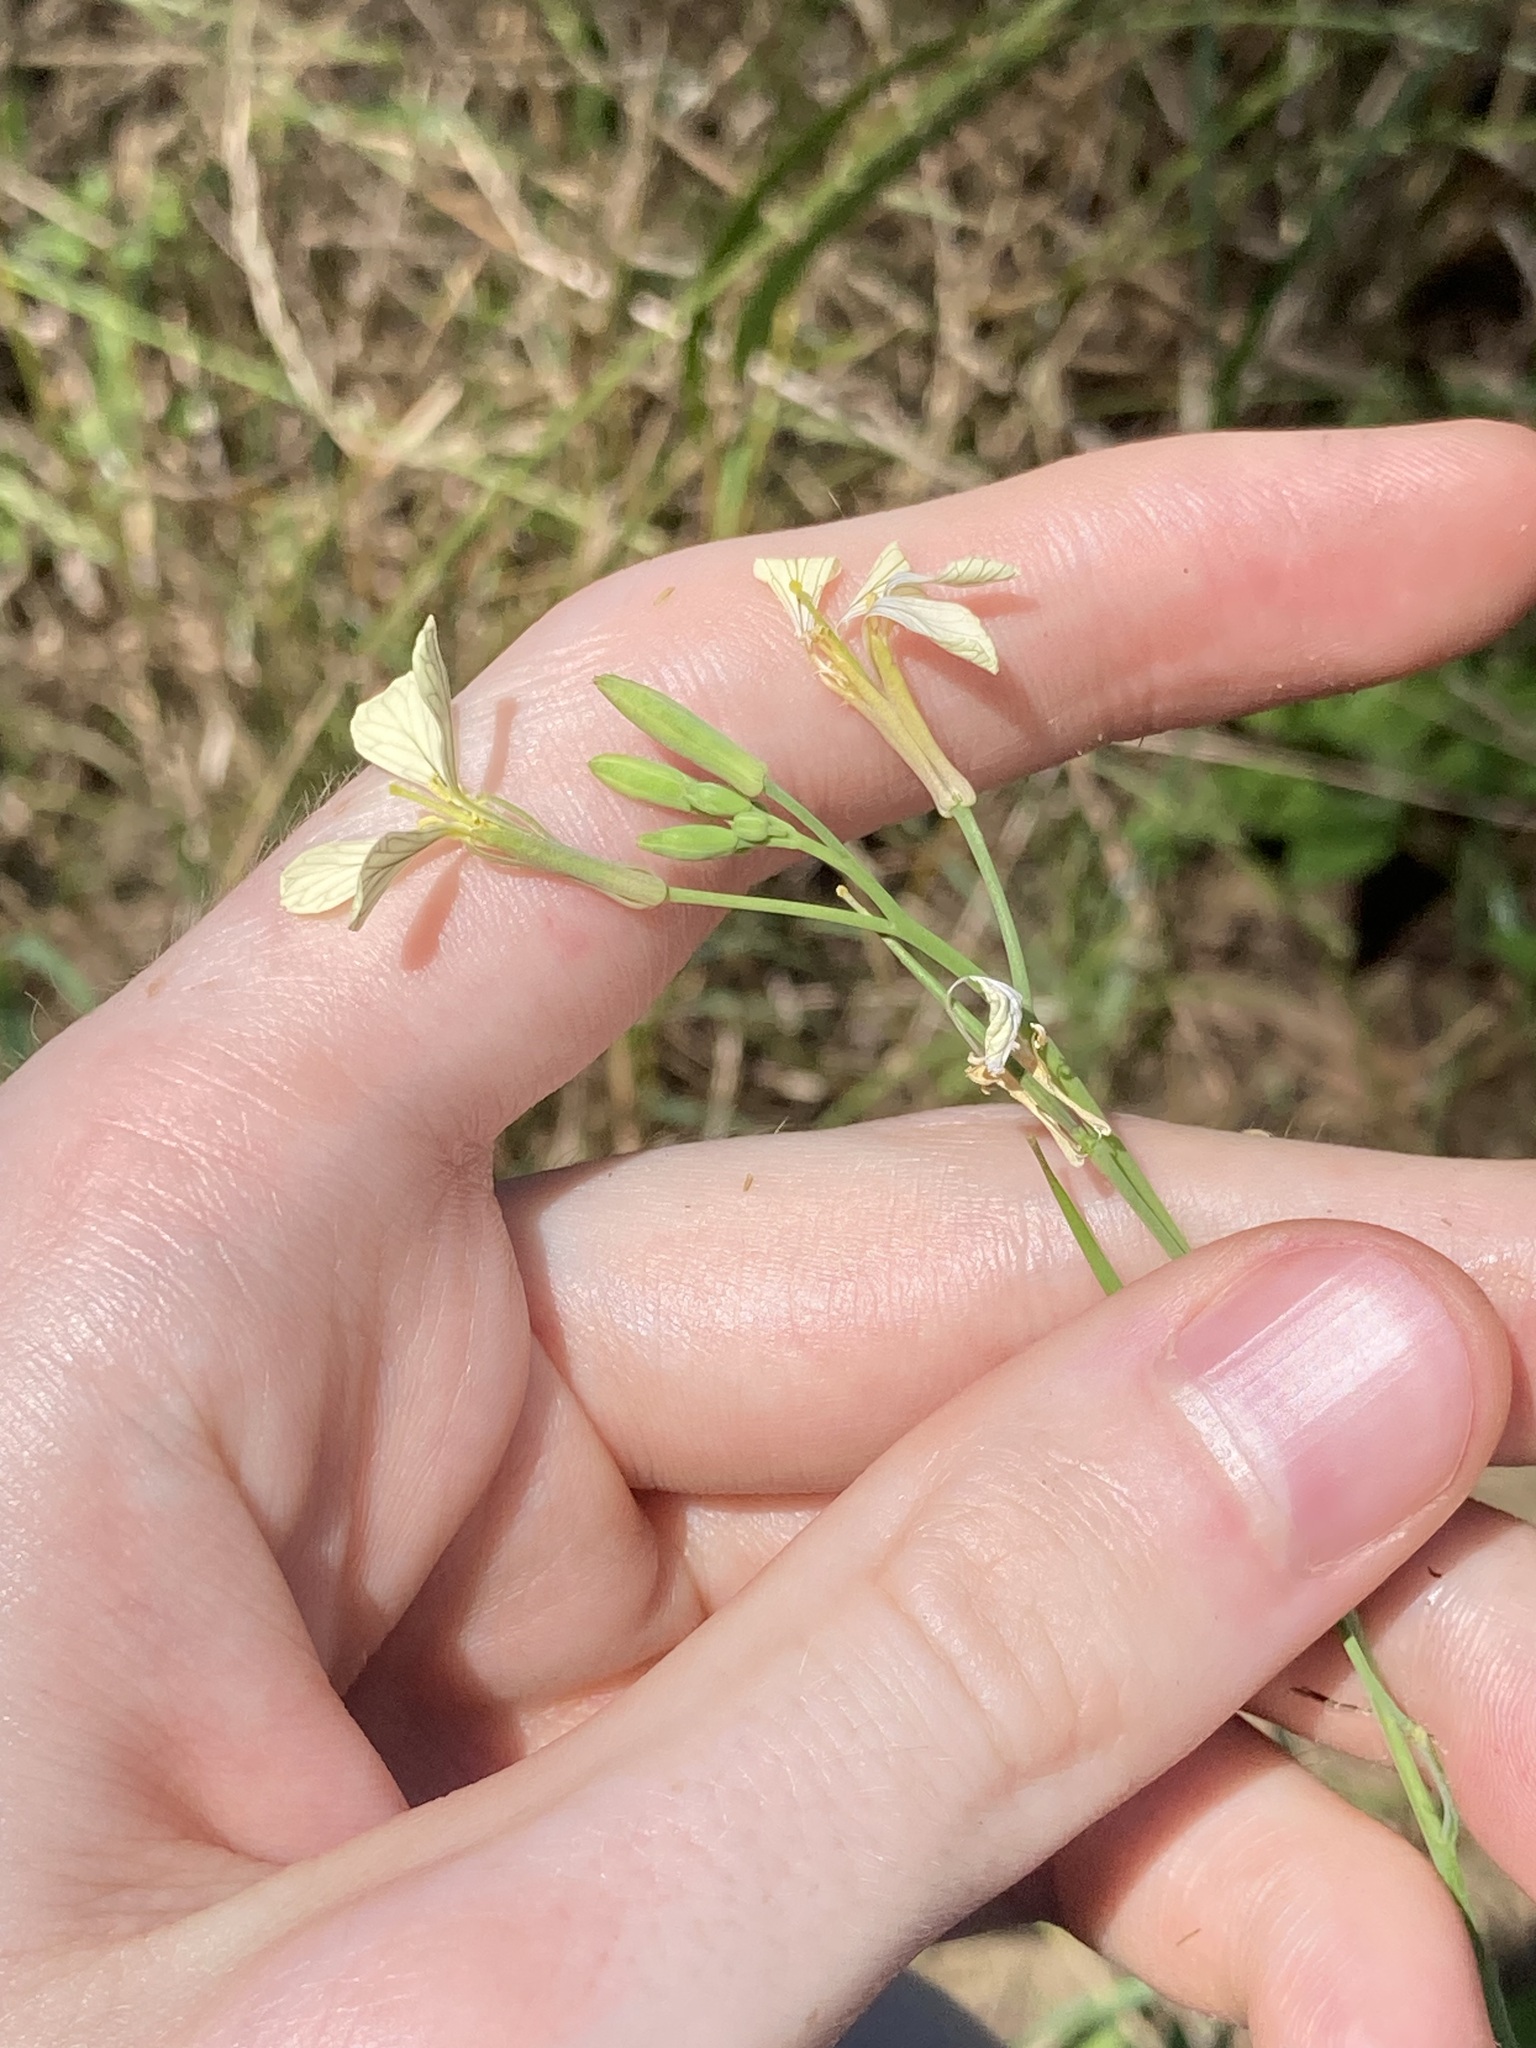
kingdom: Plantae
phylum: Tracheophyta
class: Magnoliopsida
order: Brassicales
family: Brassicaceae
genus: Raphanus
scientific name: Raphanus raphanistrum
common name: Wild radish
